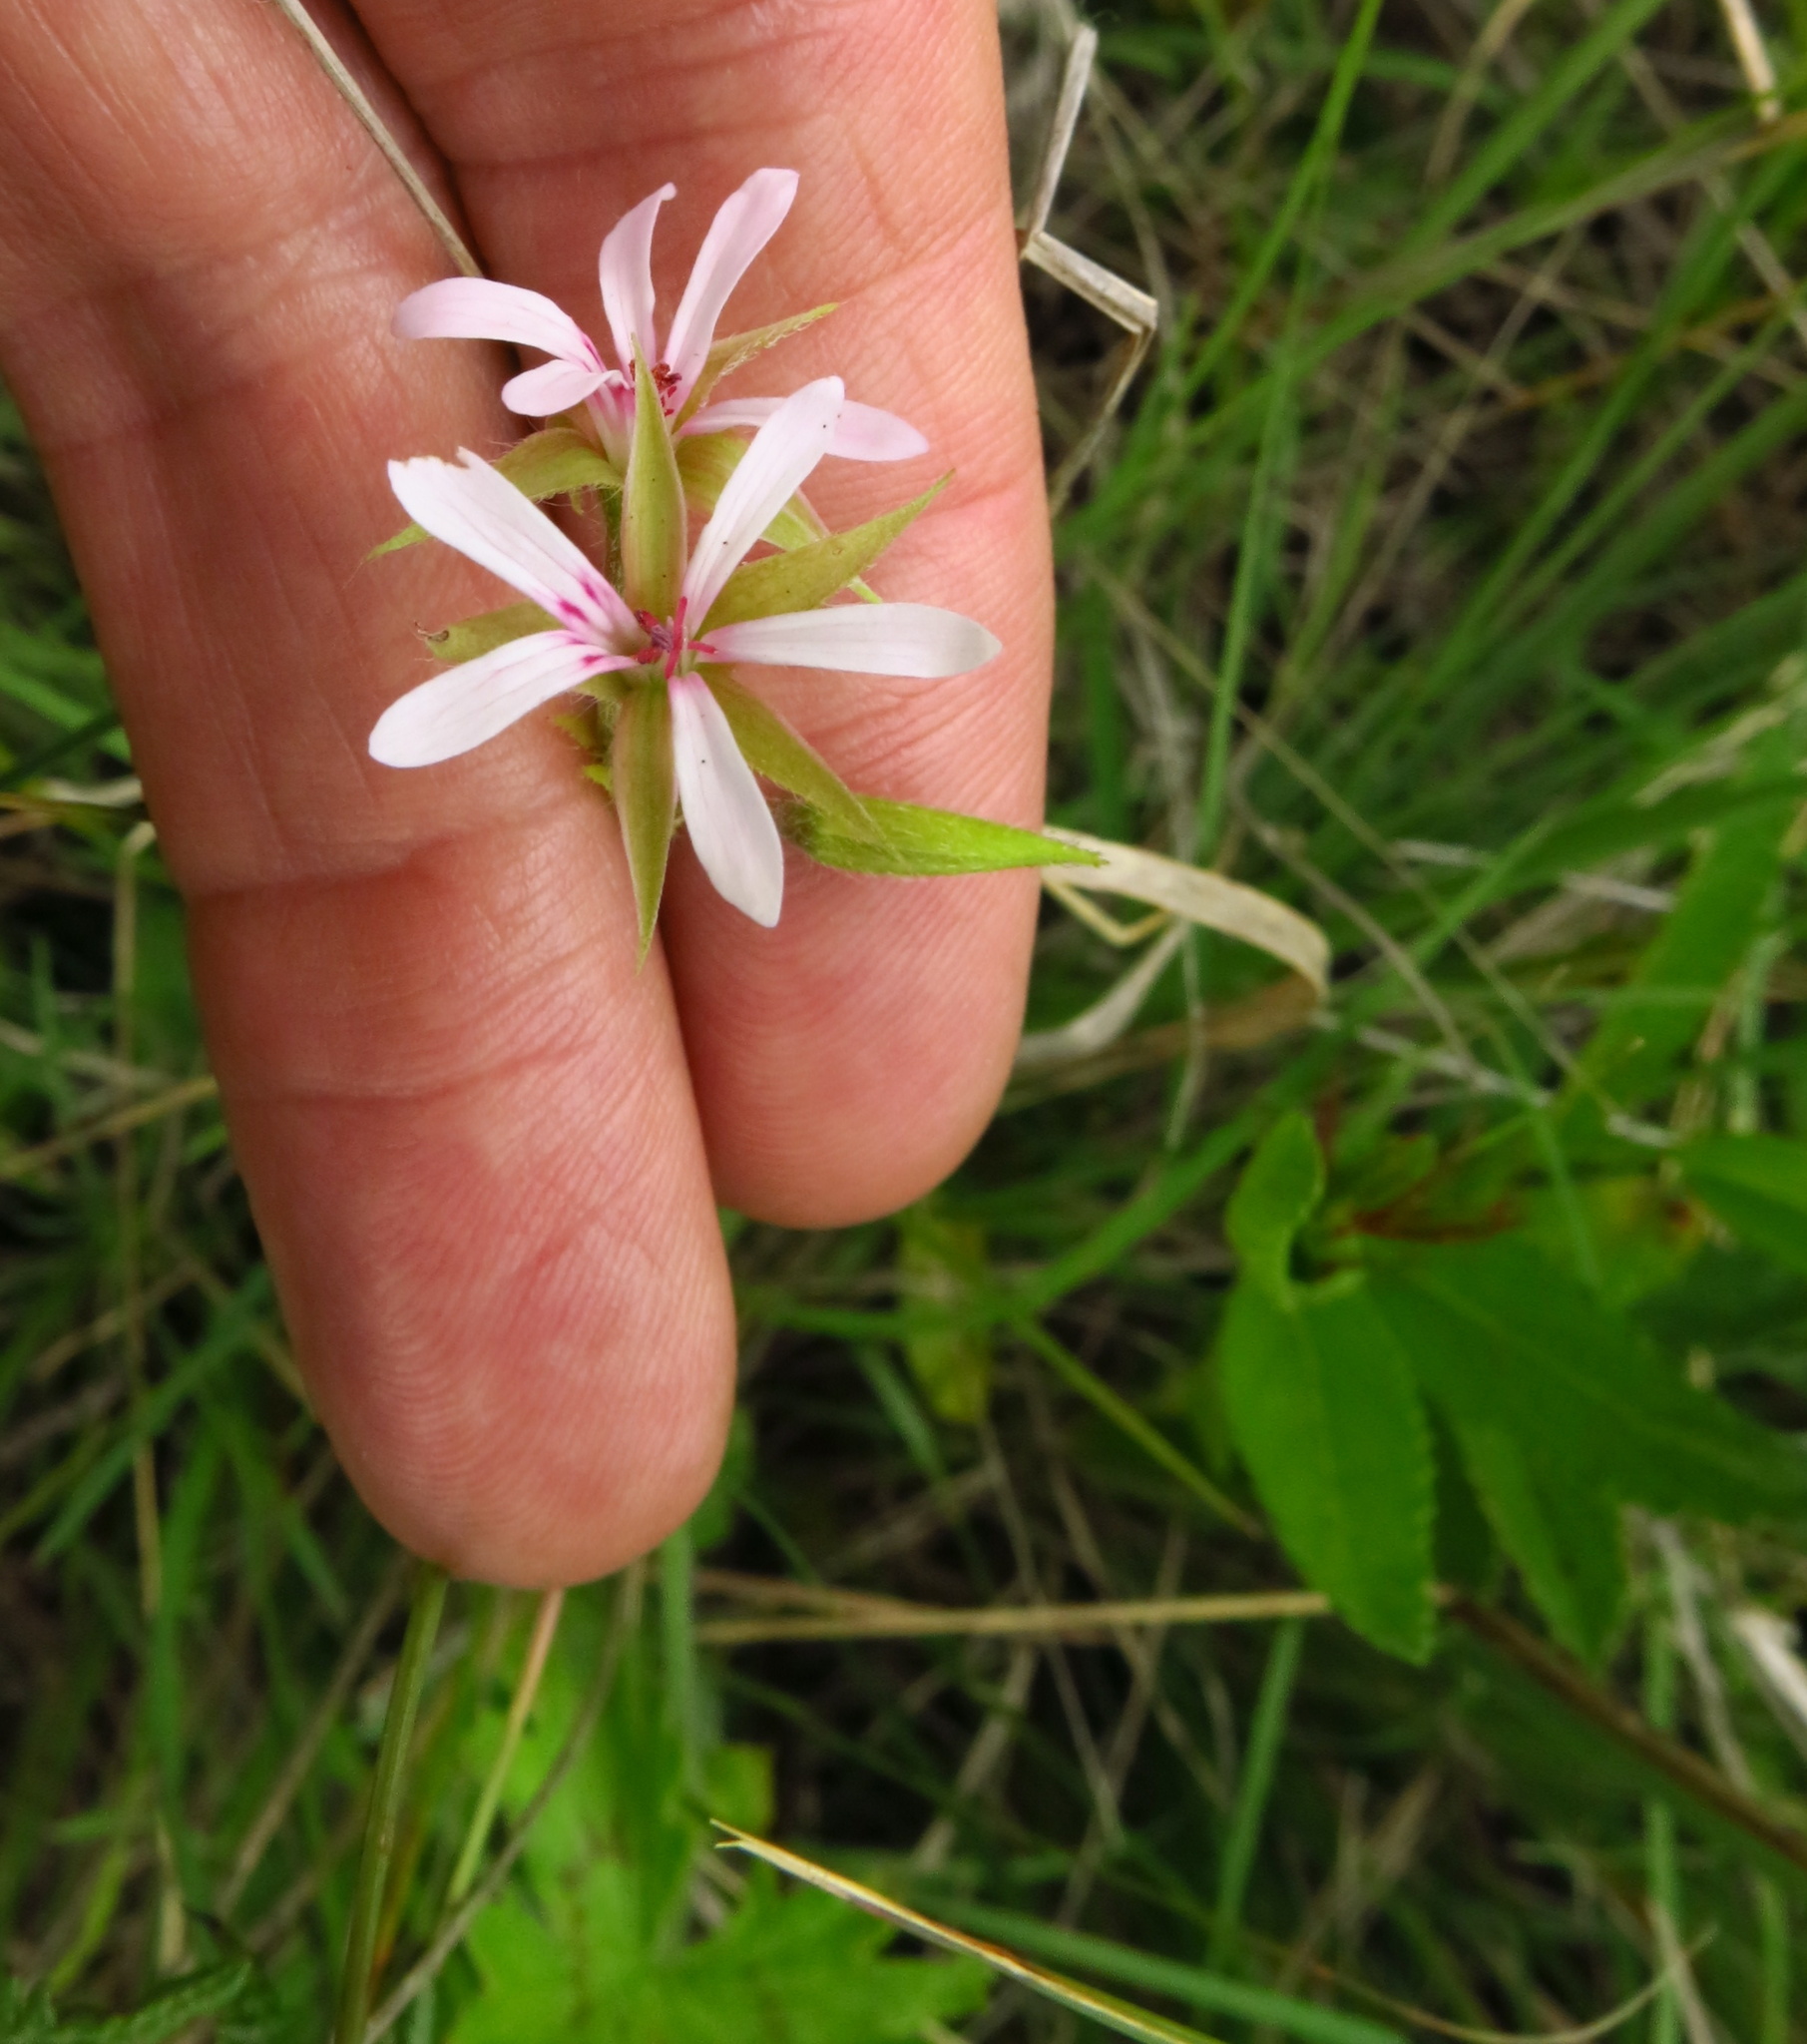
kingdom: Plantae
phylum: Tracheophyta
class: Magnoliopsida
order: Geraniales
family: Geraniaceae
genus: Pelargonium
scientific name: Pelargonium alchemilloides
